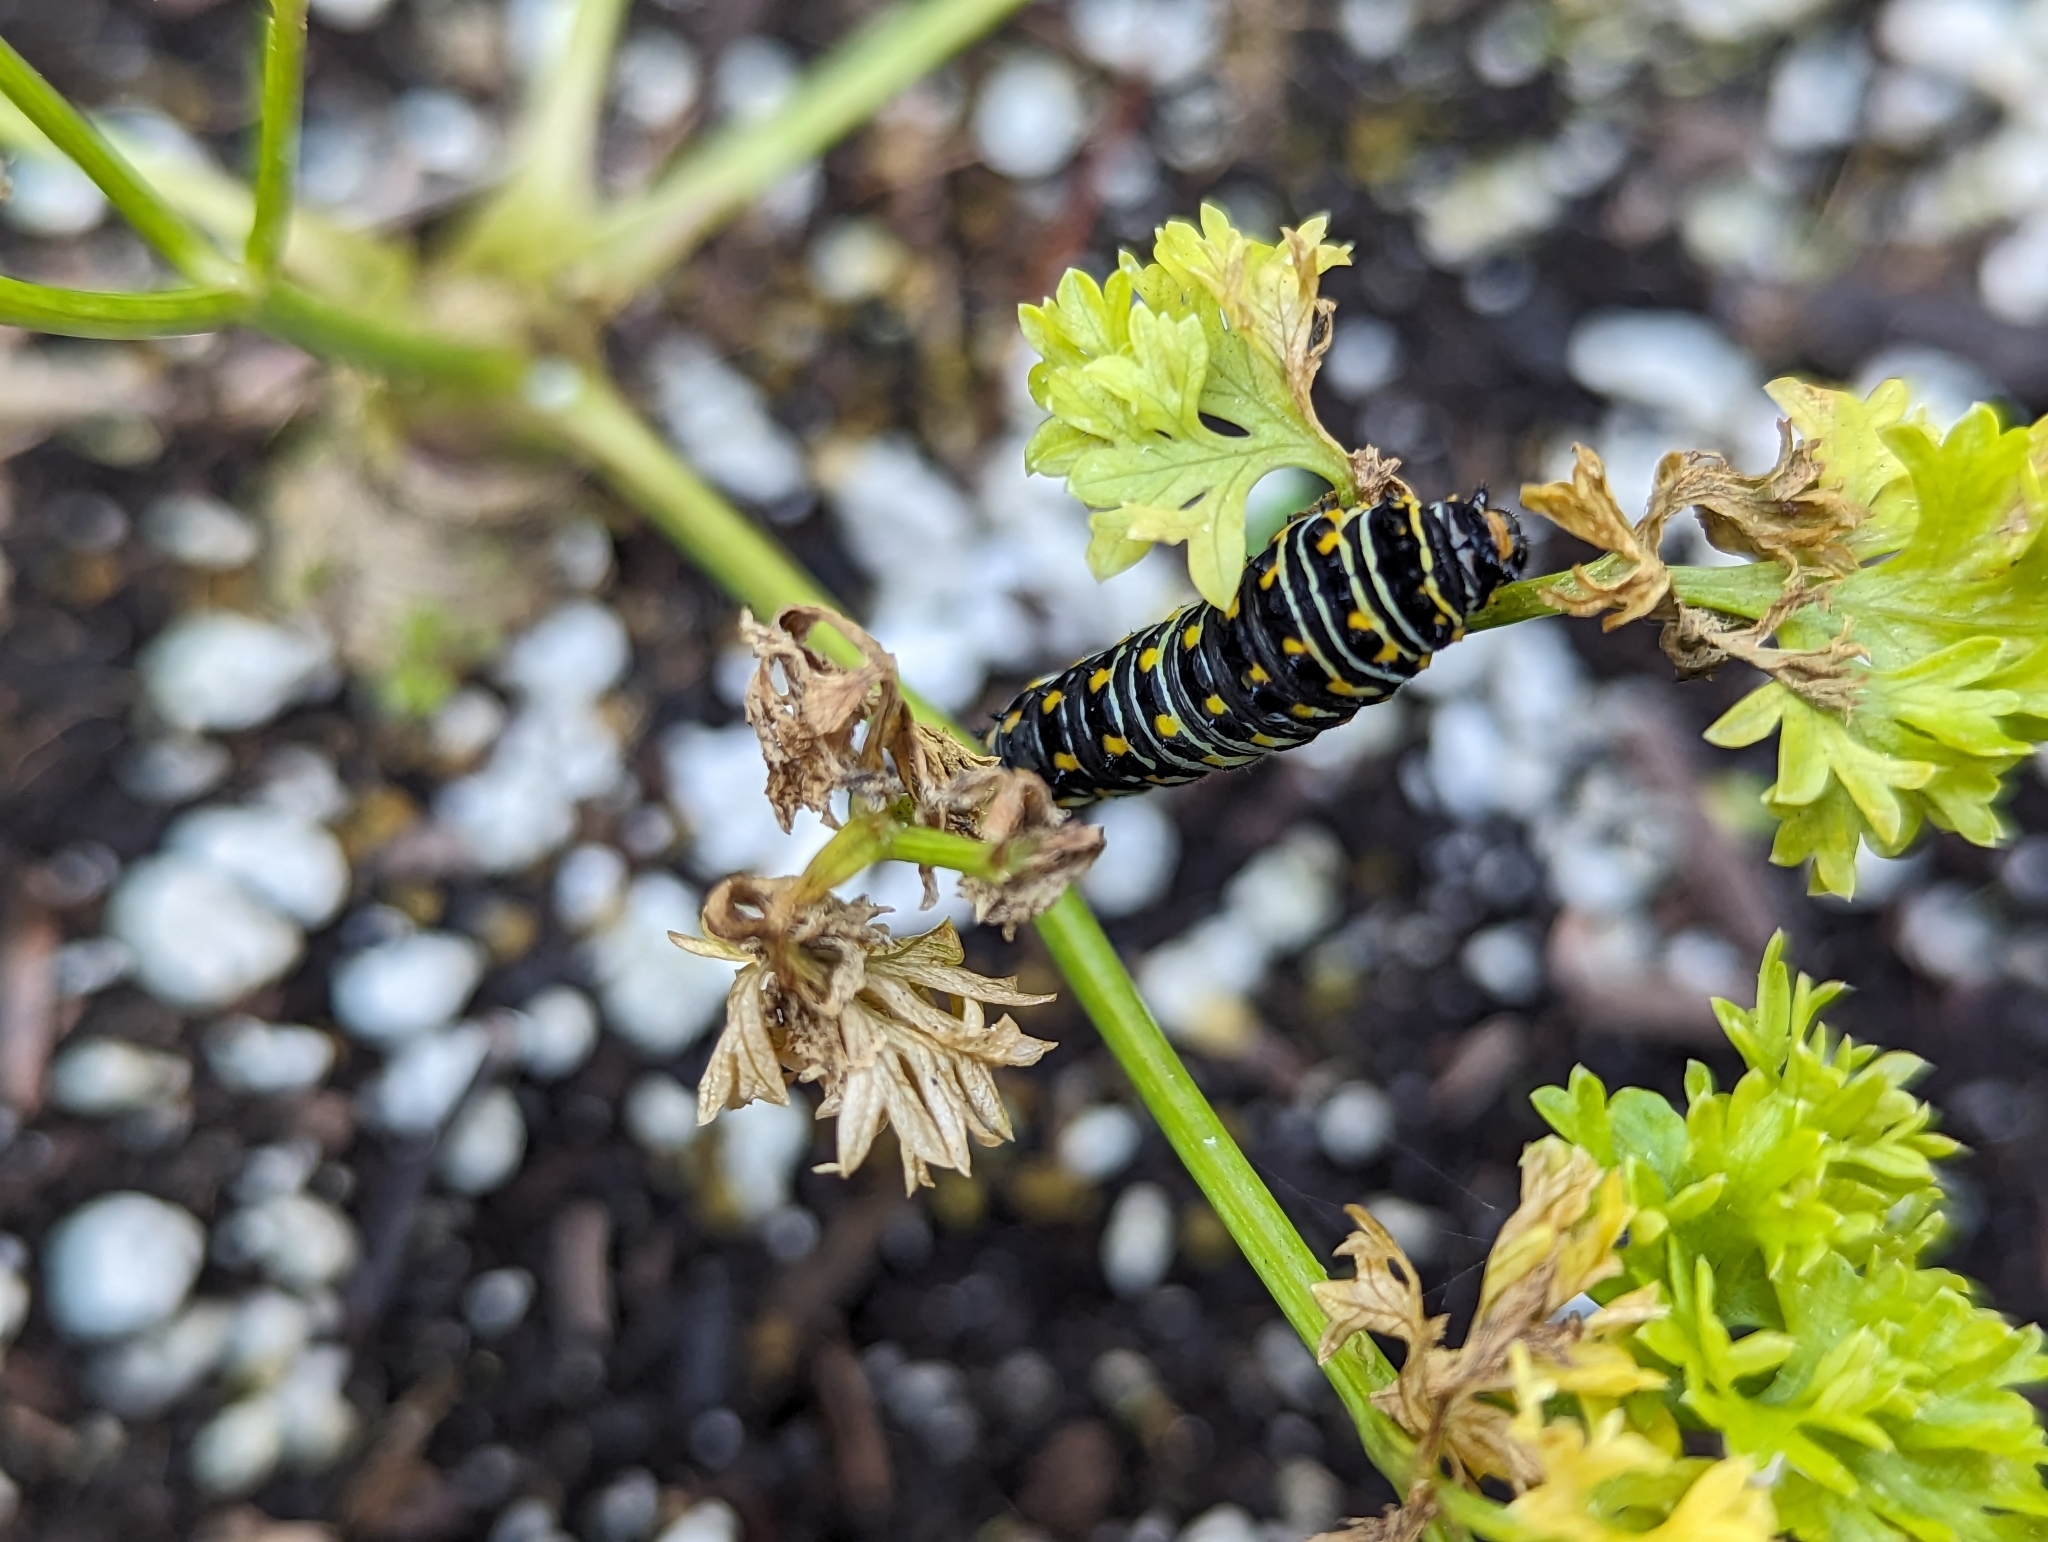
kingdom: Animalia
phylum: Arthropoda
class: Insecta
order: Lepidoptera
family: Papilionidae
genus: Papilio
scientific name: Papilio polyxenes
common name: Black swallowtail
